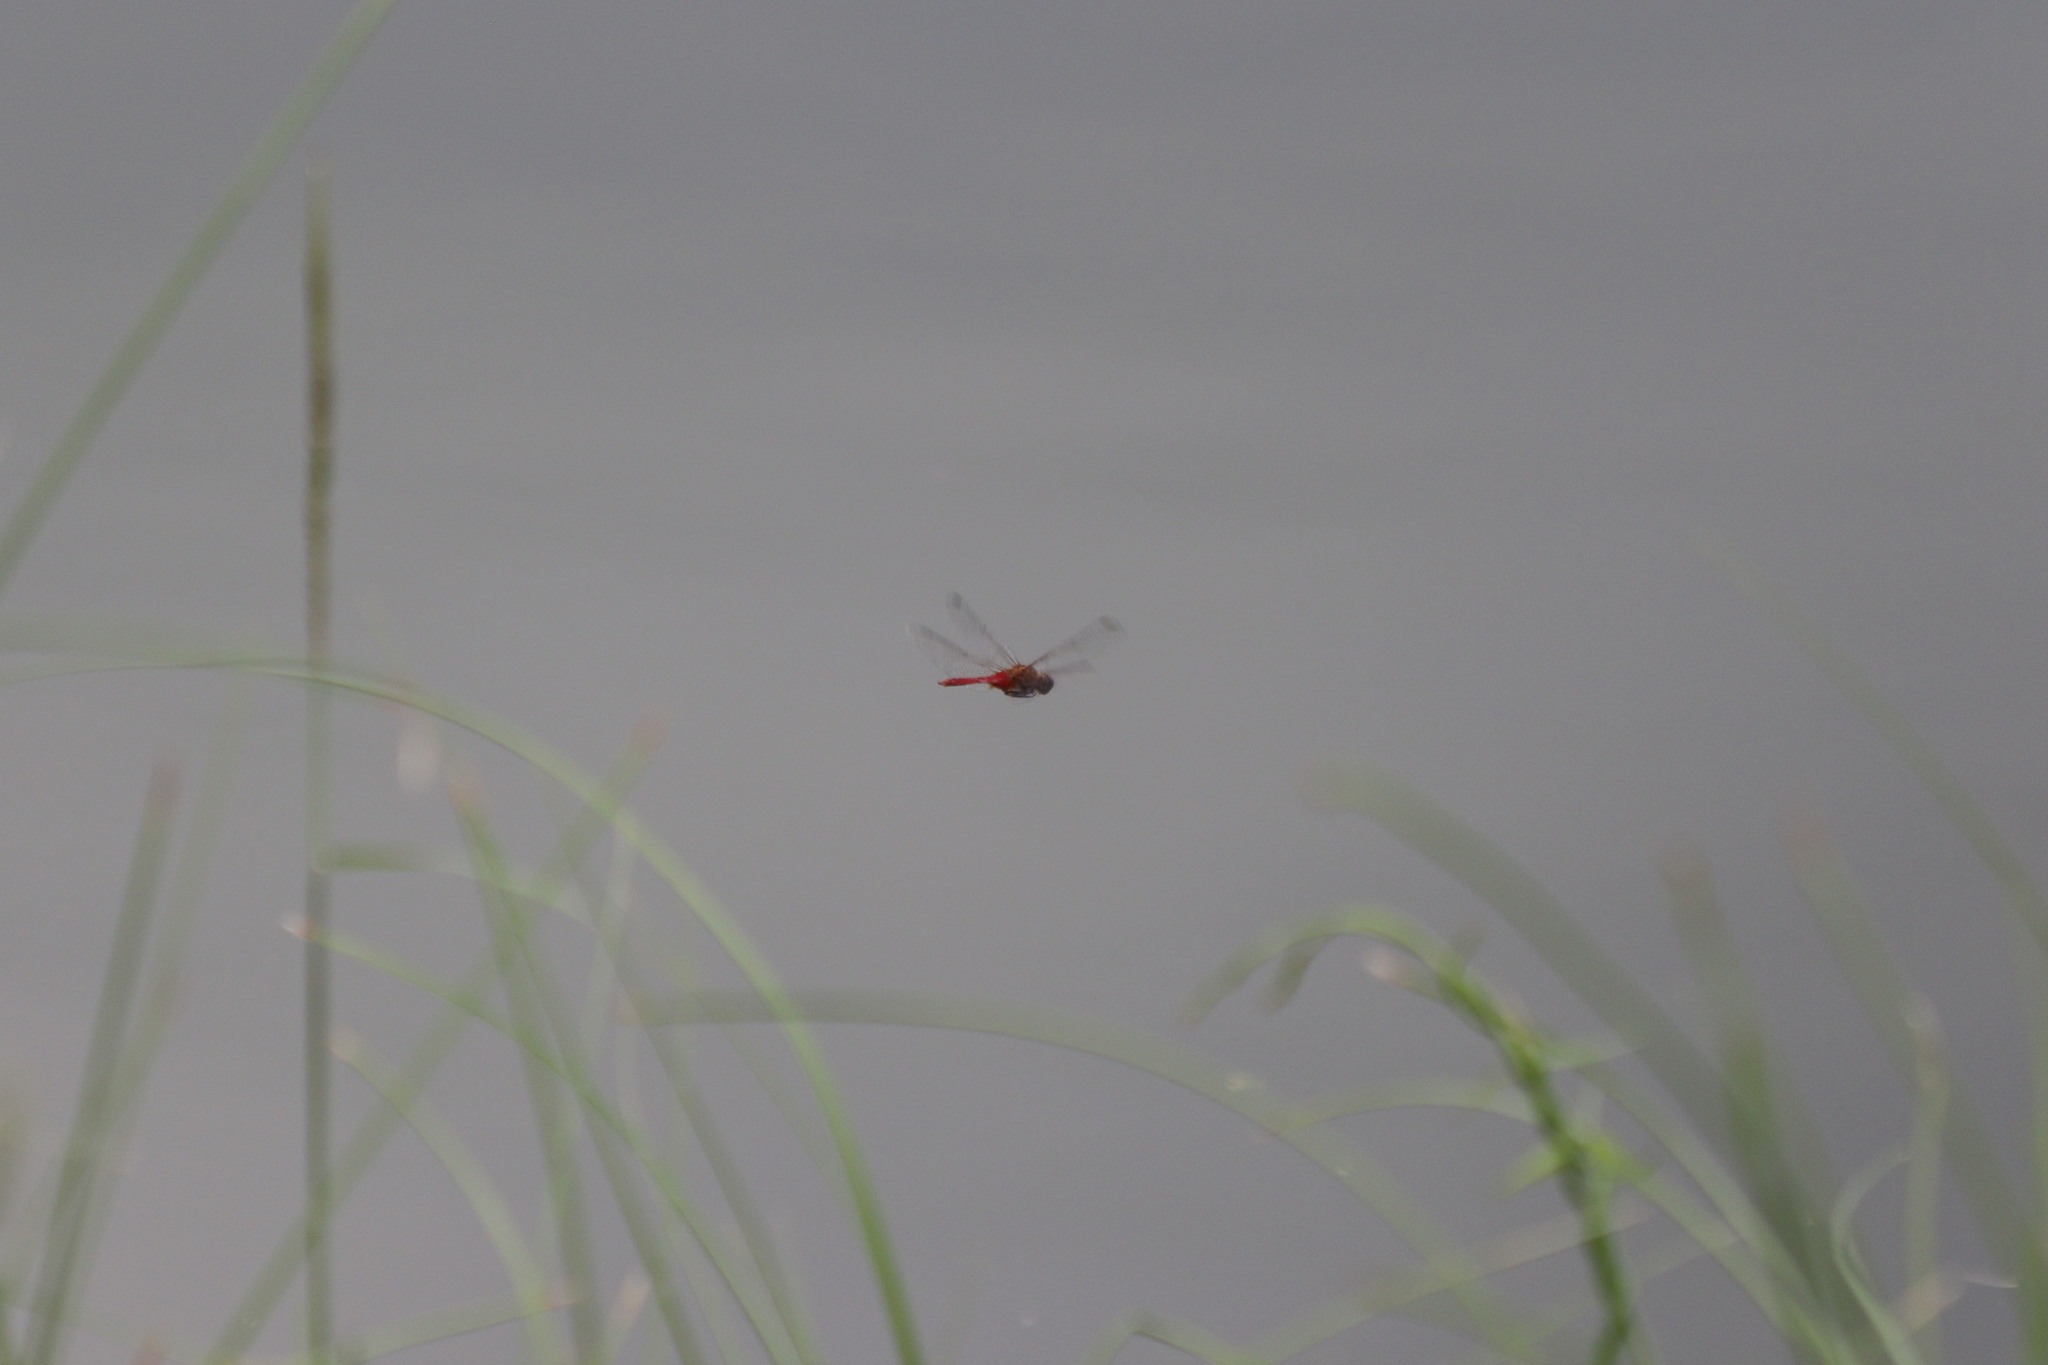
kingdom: Animalia
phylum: Arthropoda
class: Insecta
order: Odonata
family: Libellulidae
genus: Brachymesia
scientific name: Brachymesia furcata
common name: Red-taled pennant
